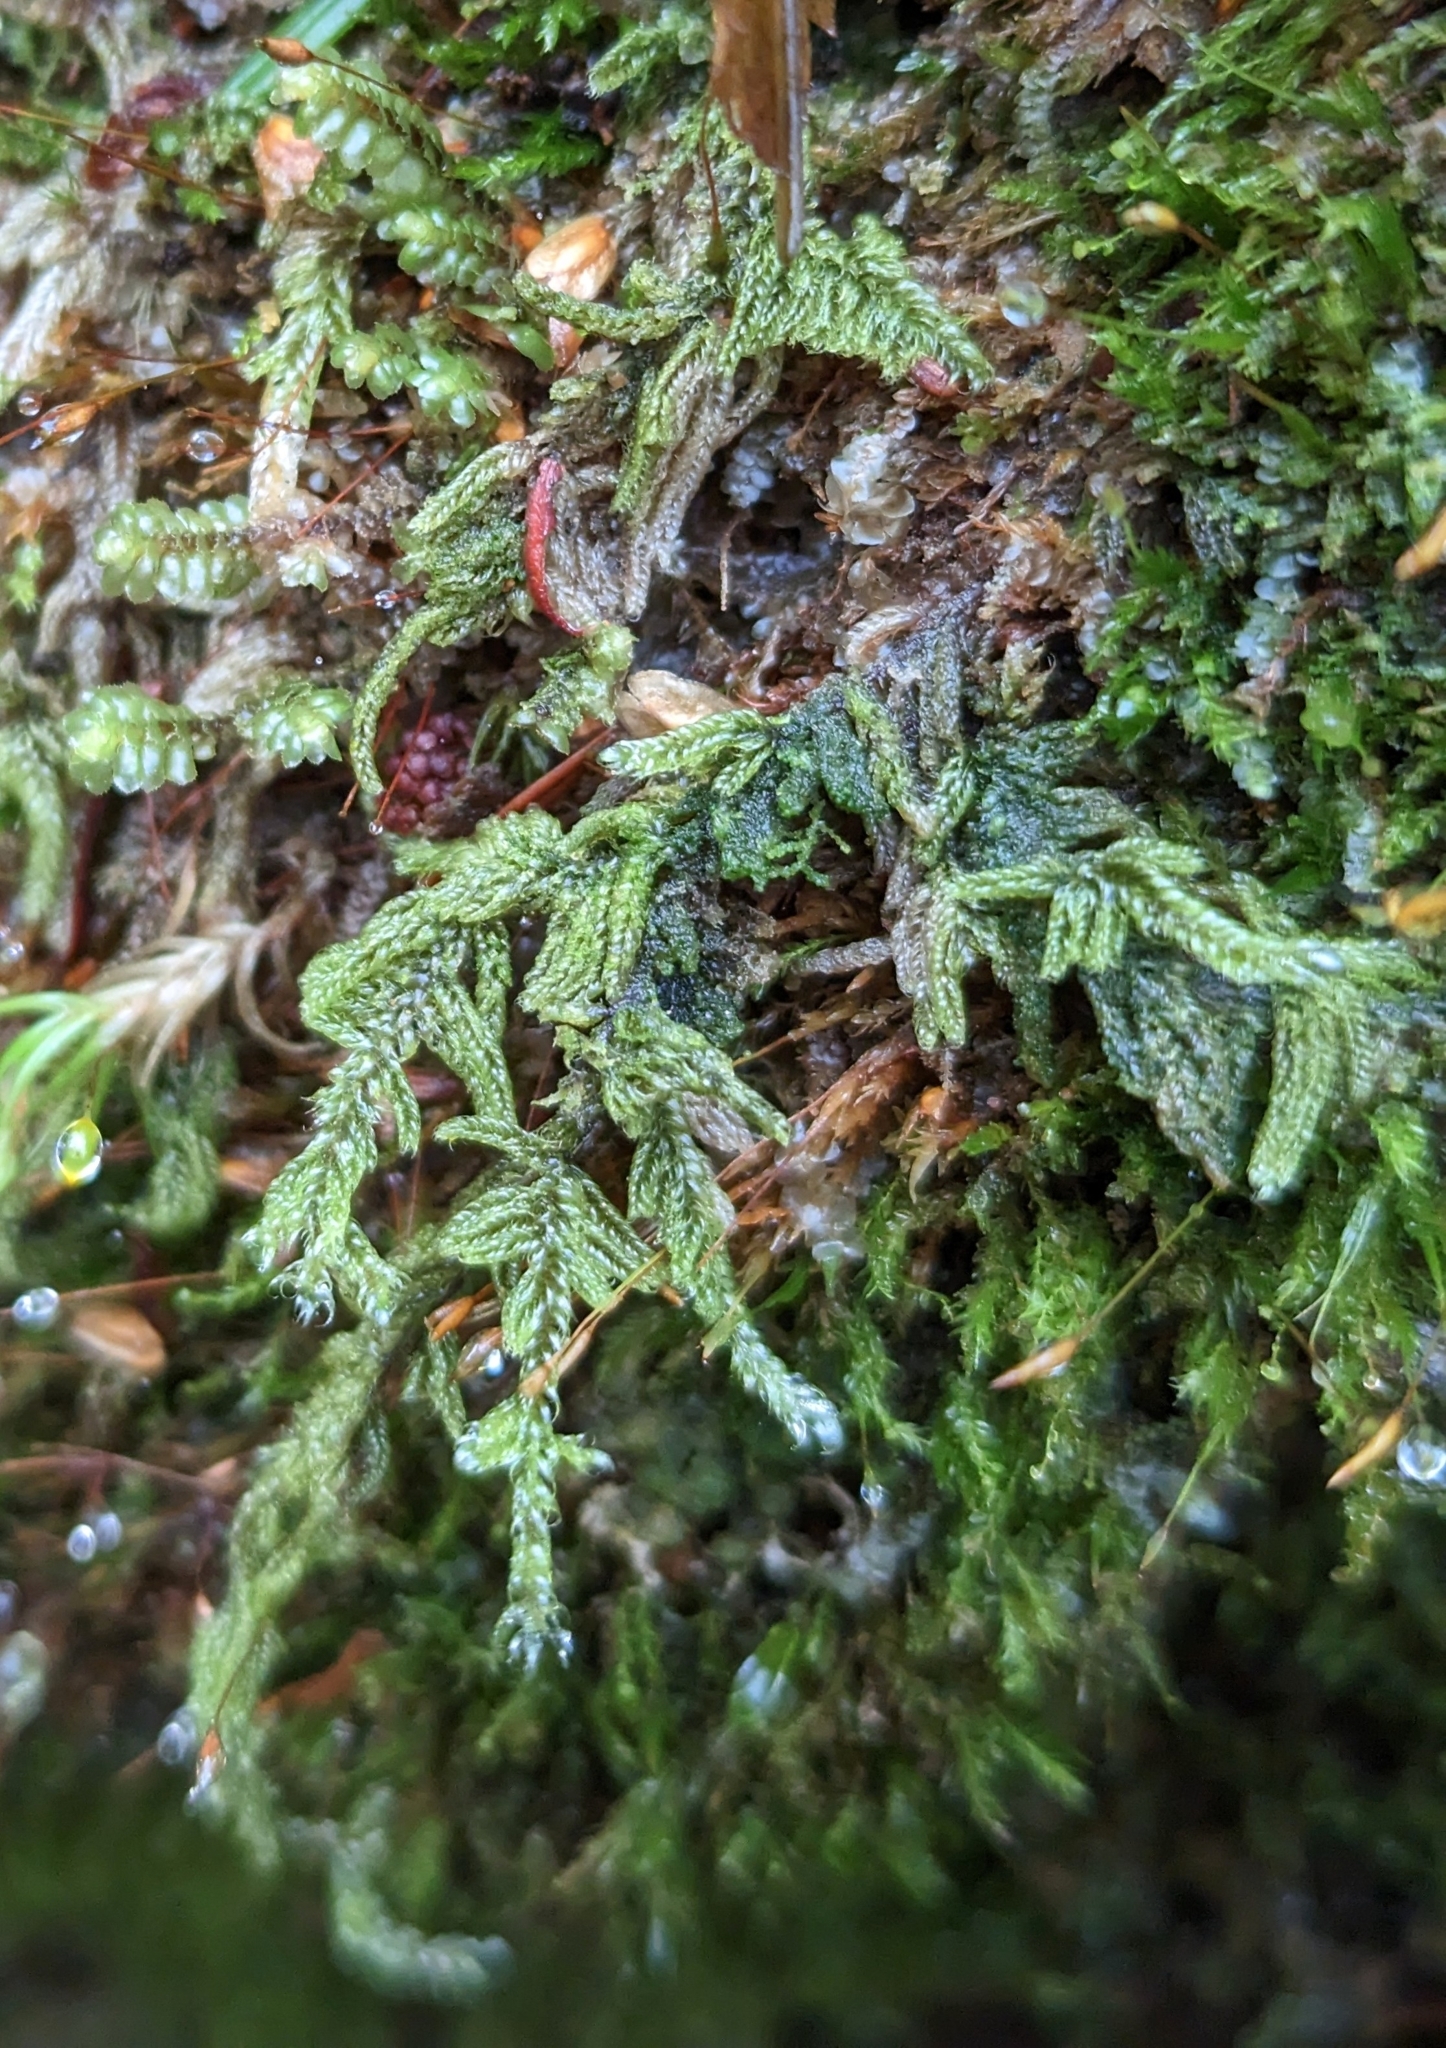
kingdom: Plantae
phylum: Bryophyta
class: Bryopsida
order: Hypnales
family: Pylaisiadelphaceae
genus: Trochophyllohypnum
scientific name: Trochophyllohypnum circinale
